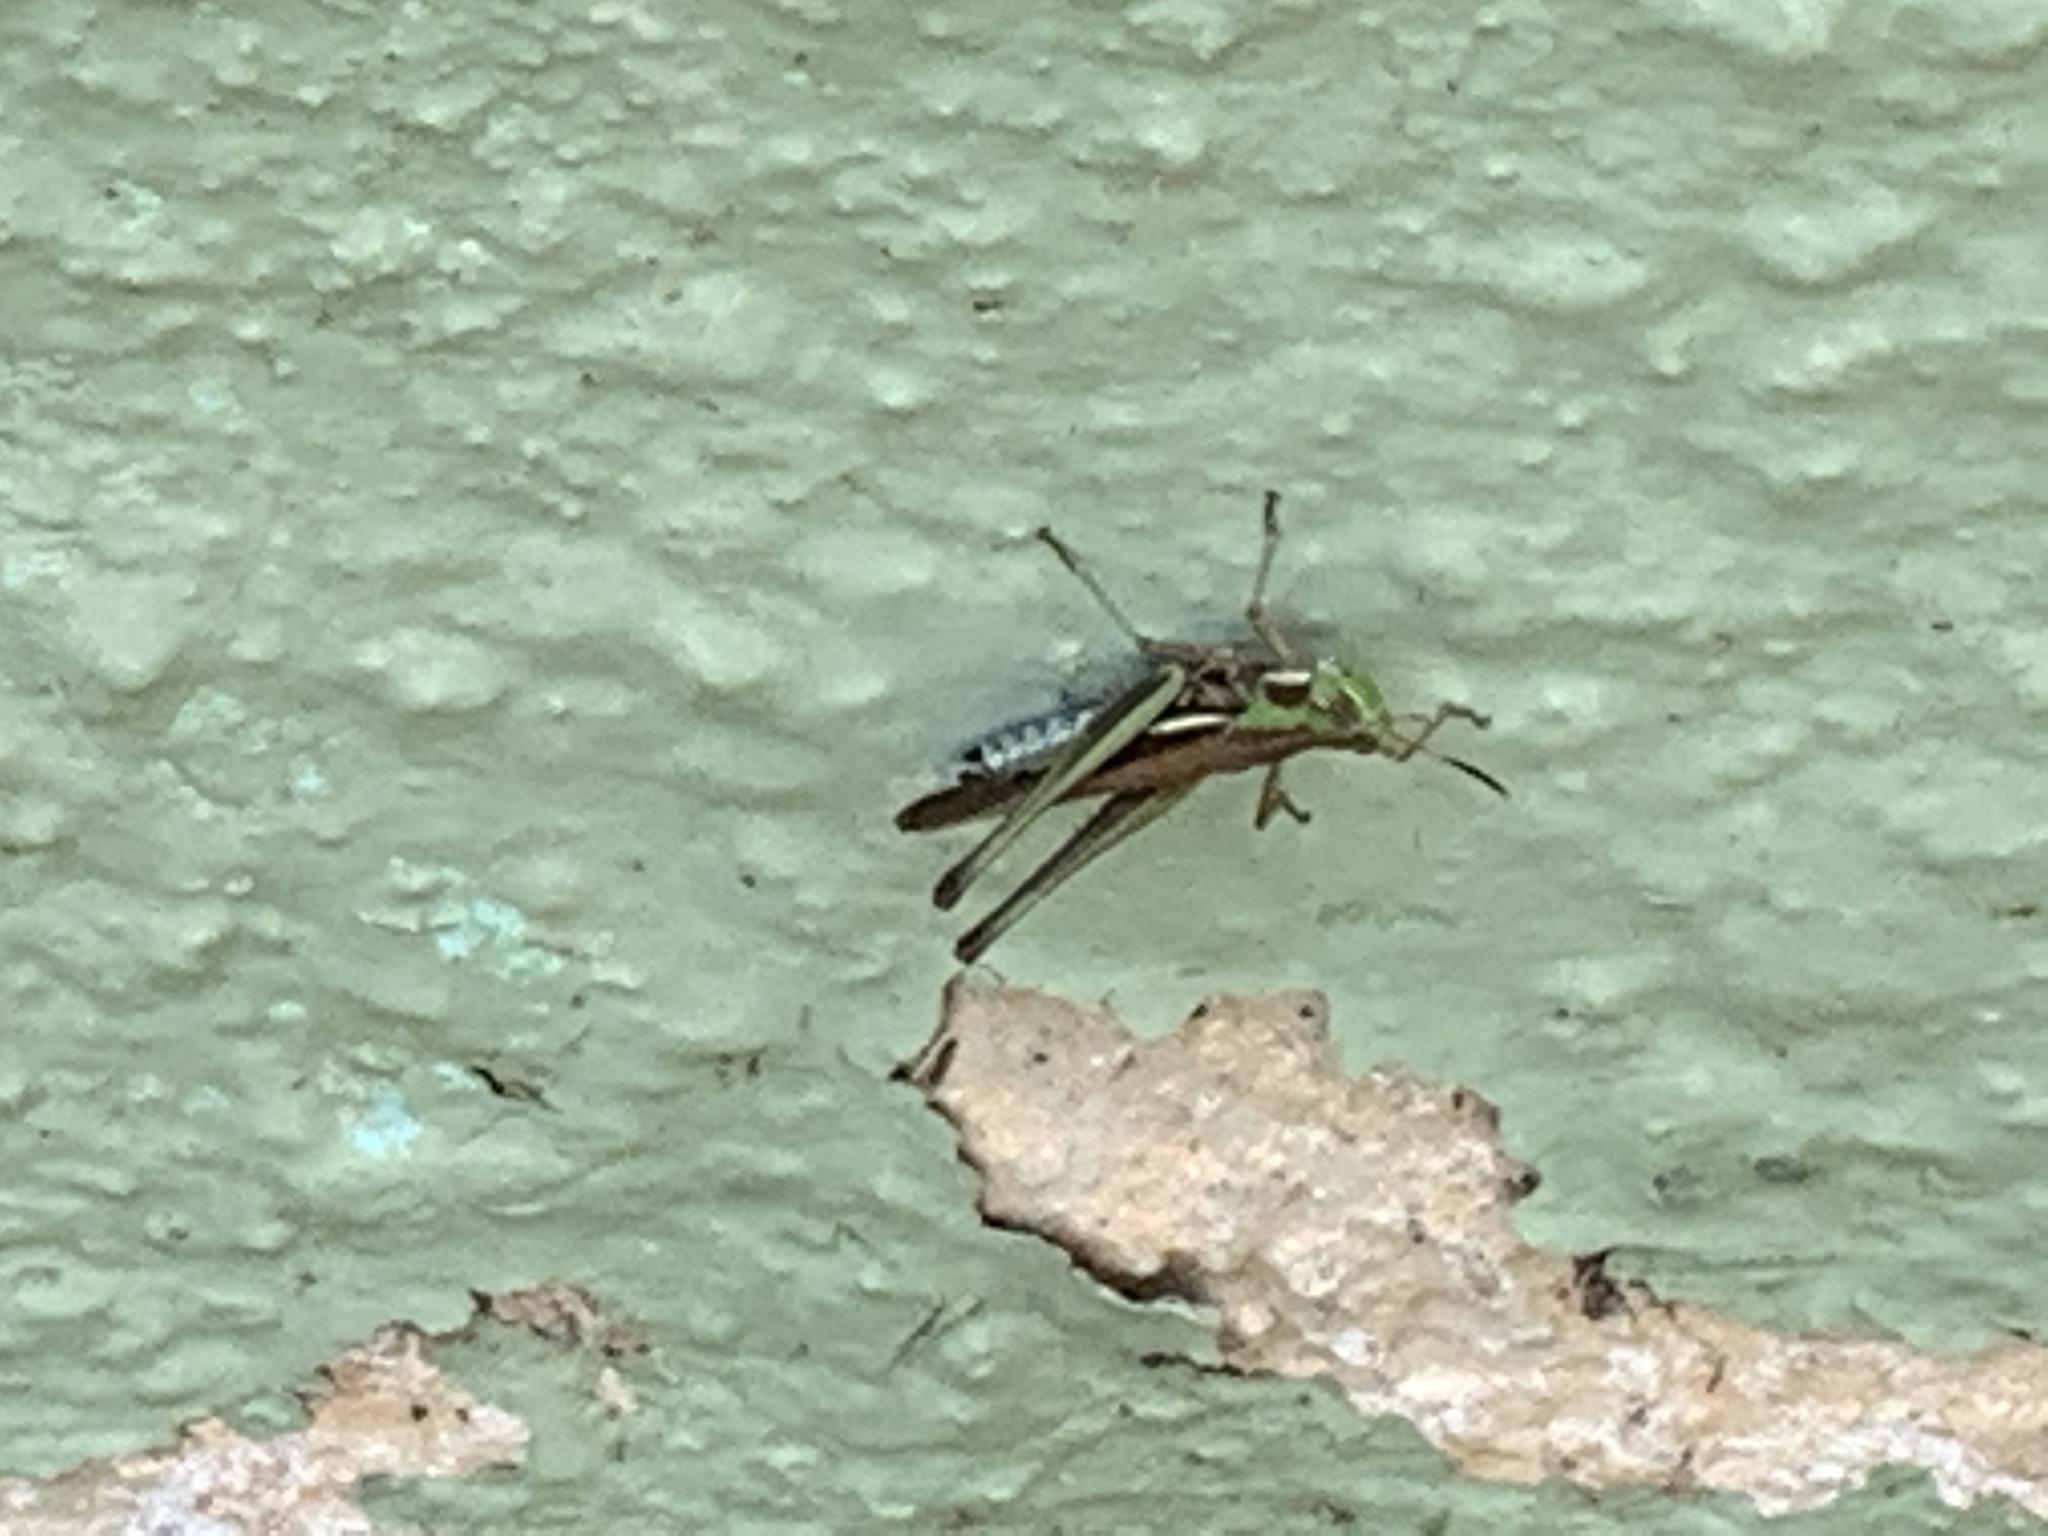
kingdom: Animalia
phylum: Arthropoda
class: Insecta
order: Orthoptera
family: Acrididae
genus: Syrbula
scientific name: Syrbula montezuma
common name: Montezuma's grasshopper
